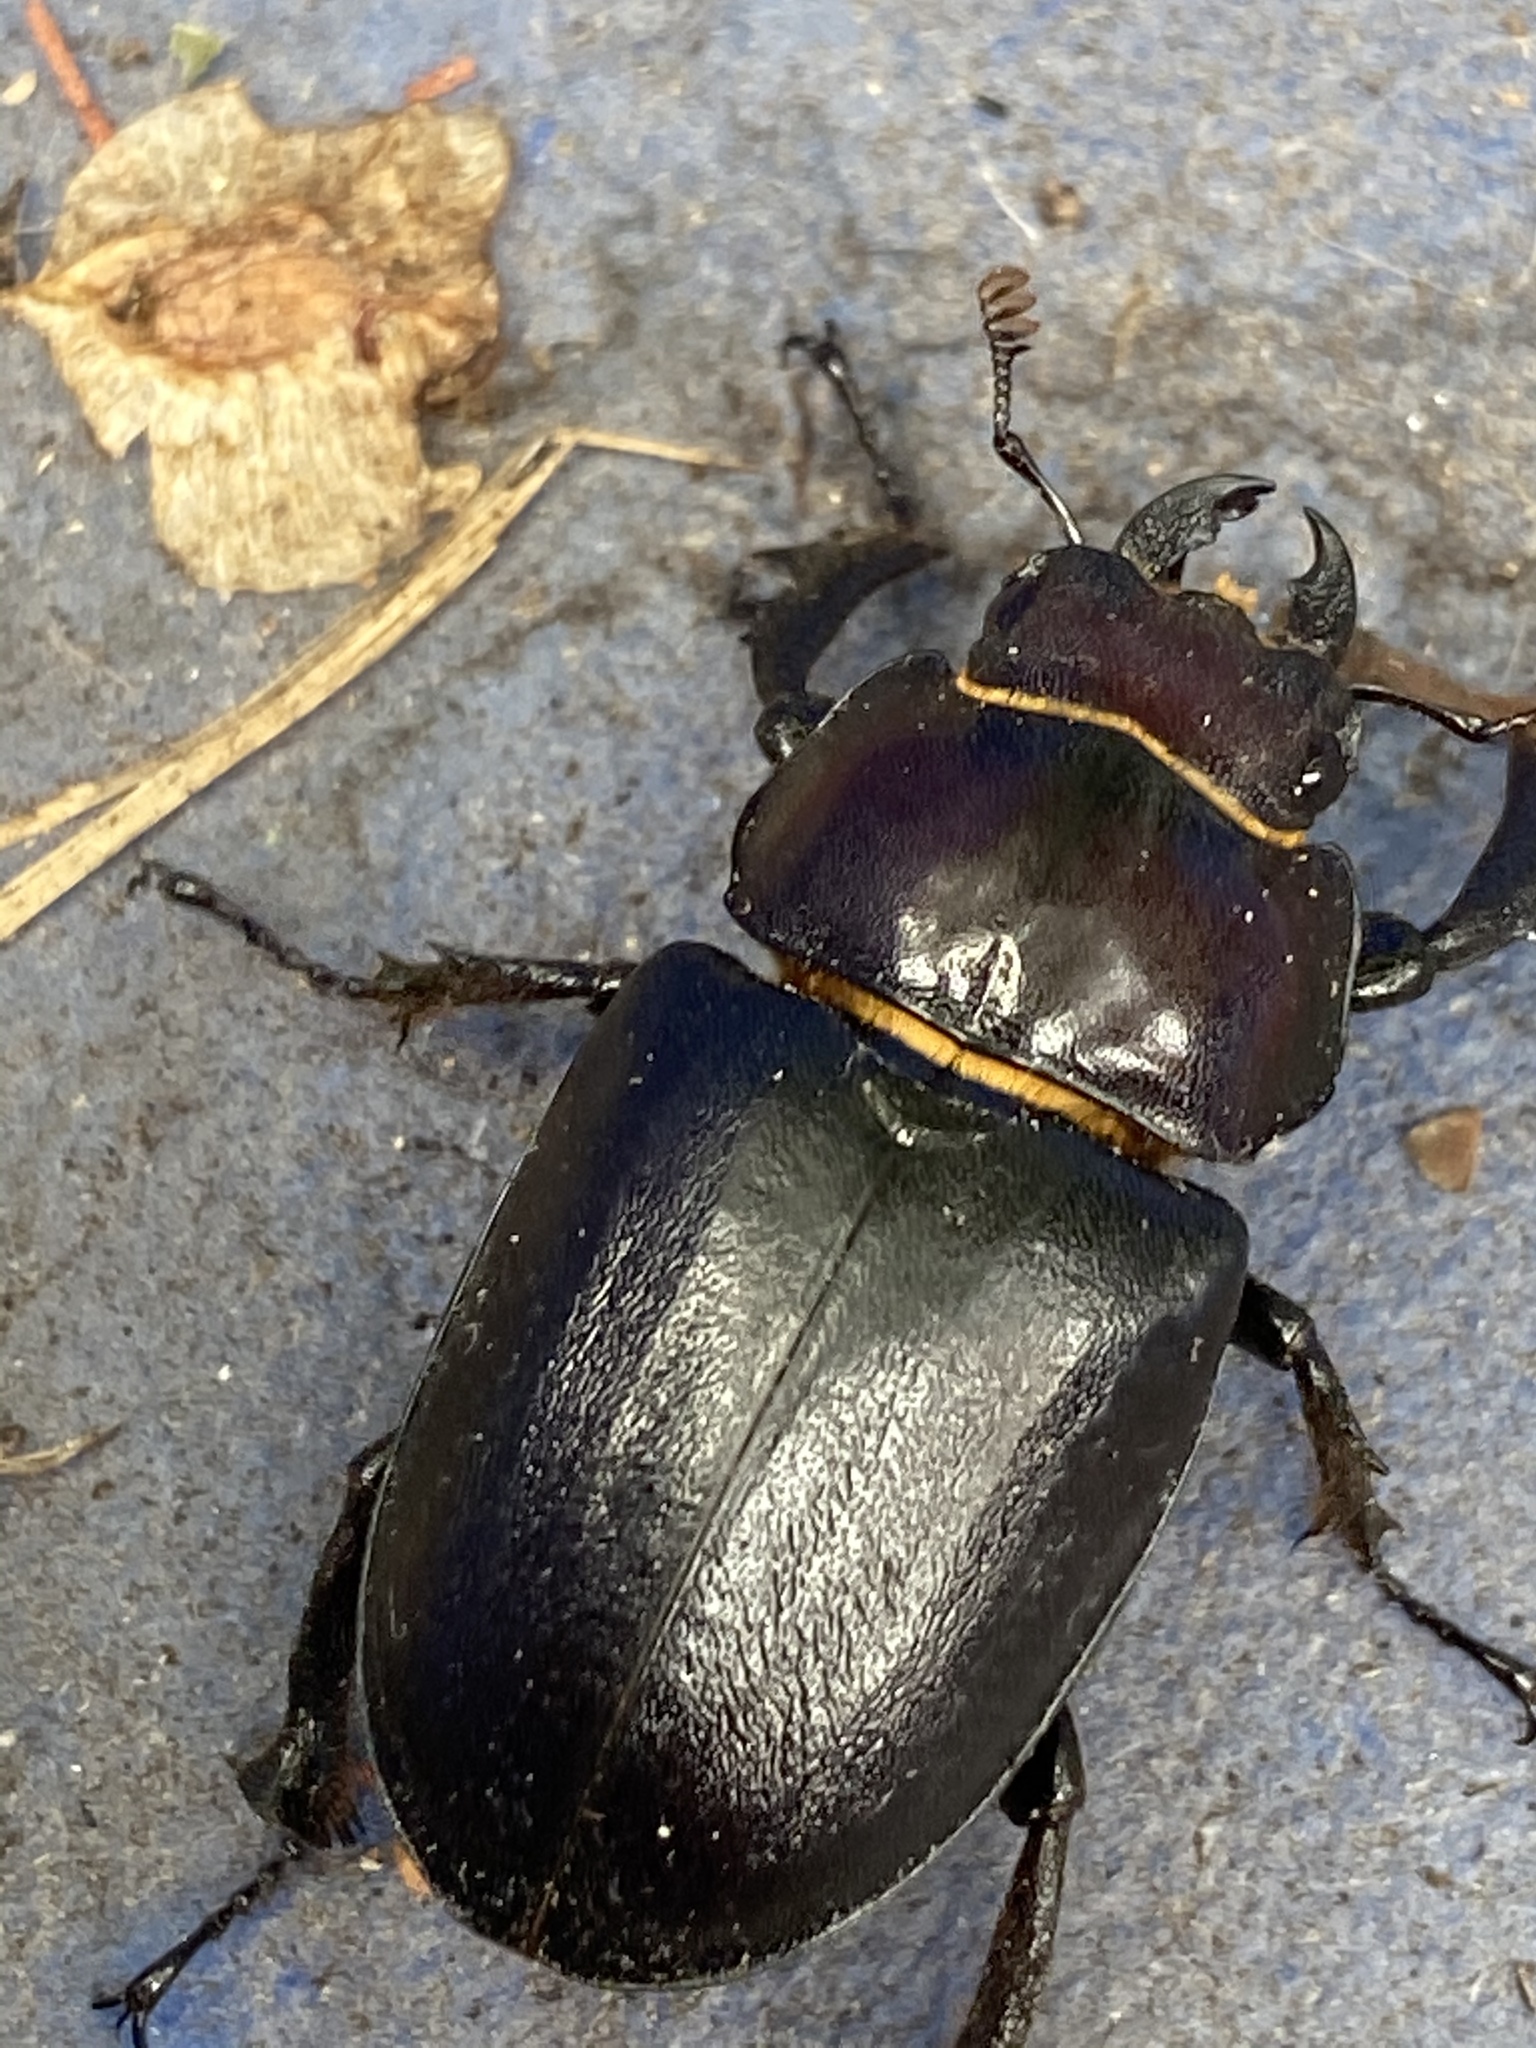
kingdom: Animalia
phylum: Arthropoda
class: Insecta
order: Coleoptera
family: Lucanidae
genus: Lucanus
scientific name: Lucanus placidus
